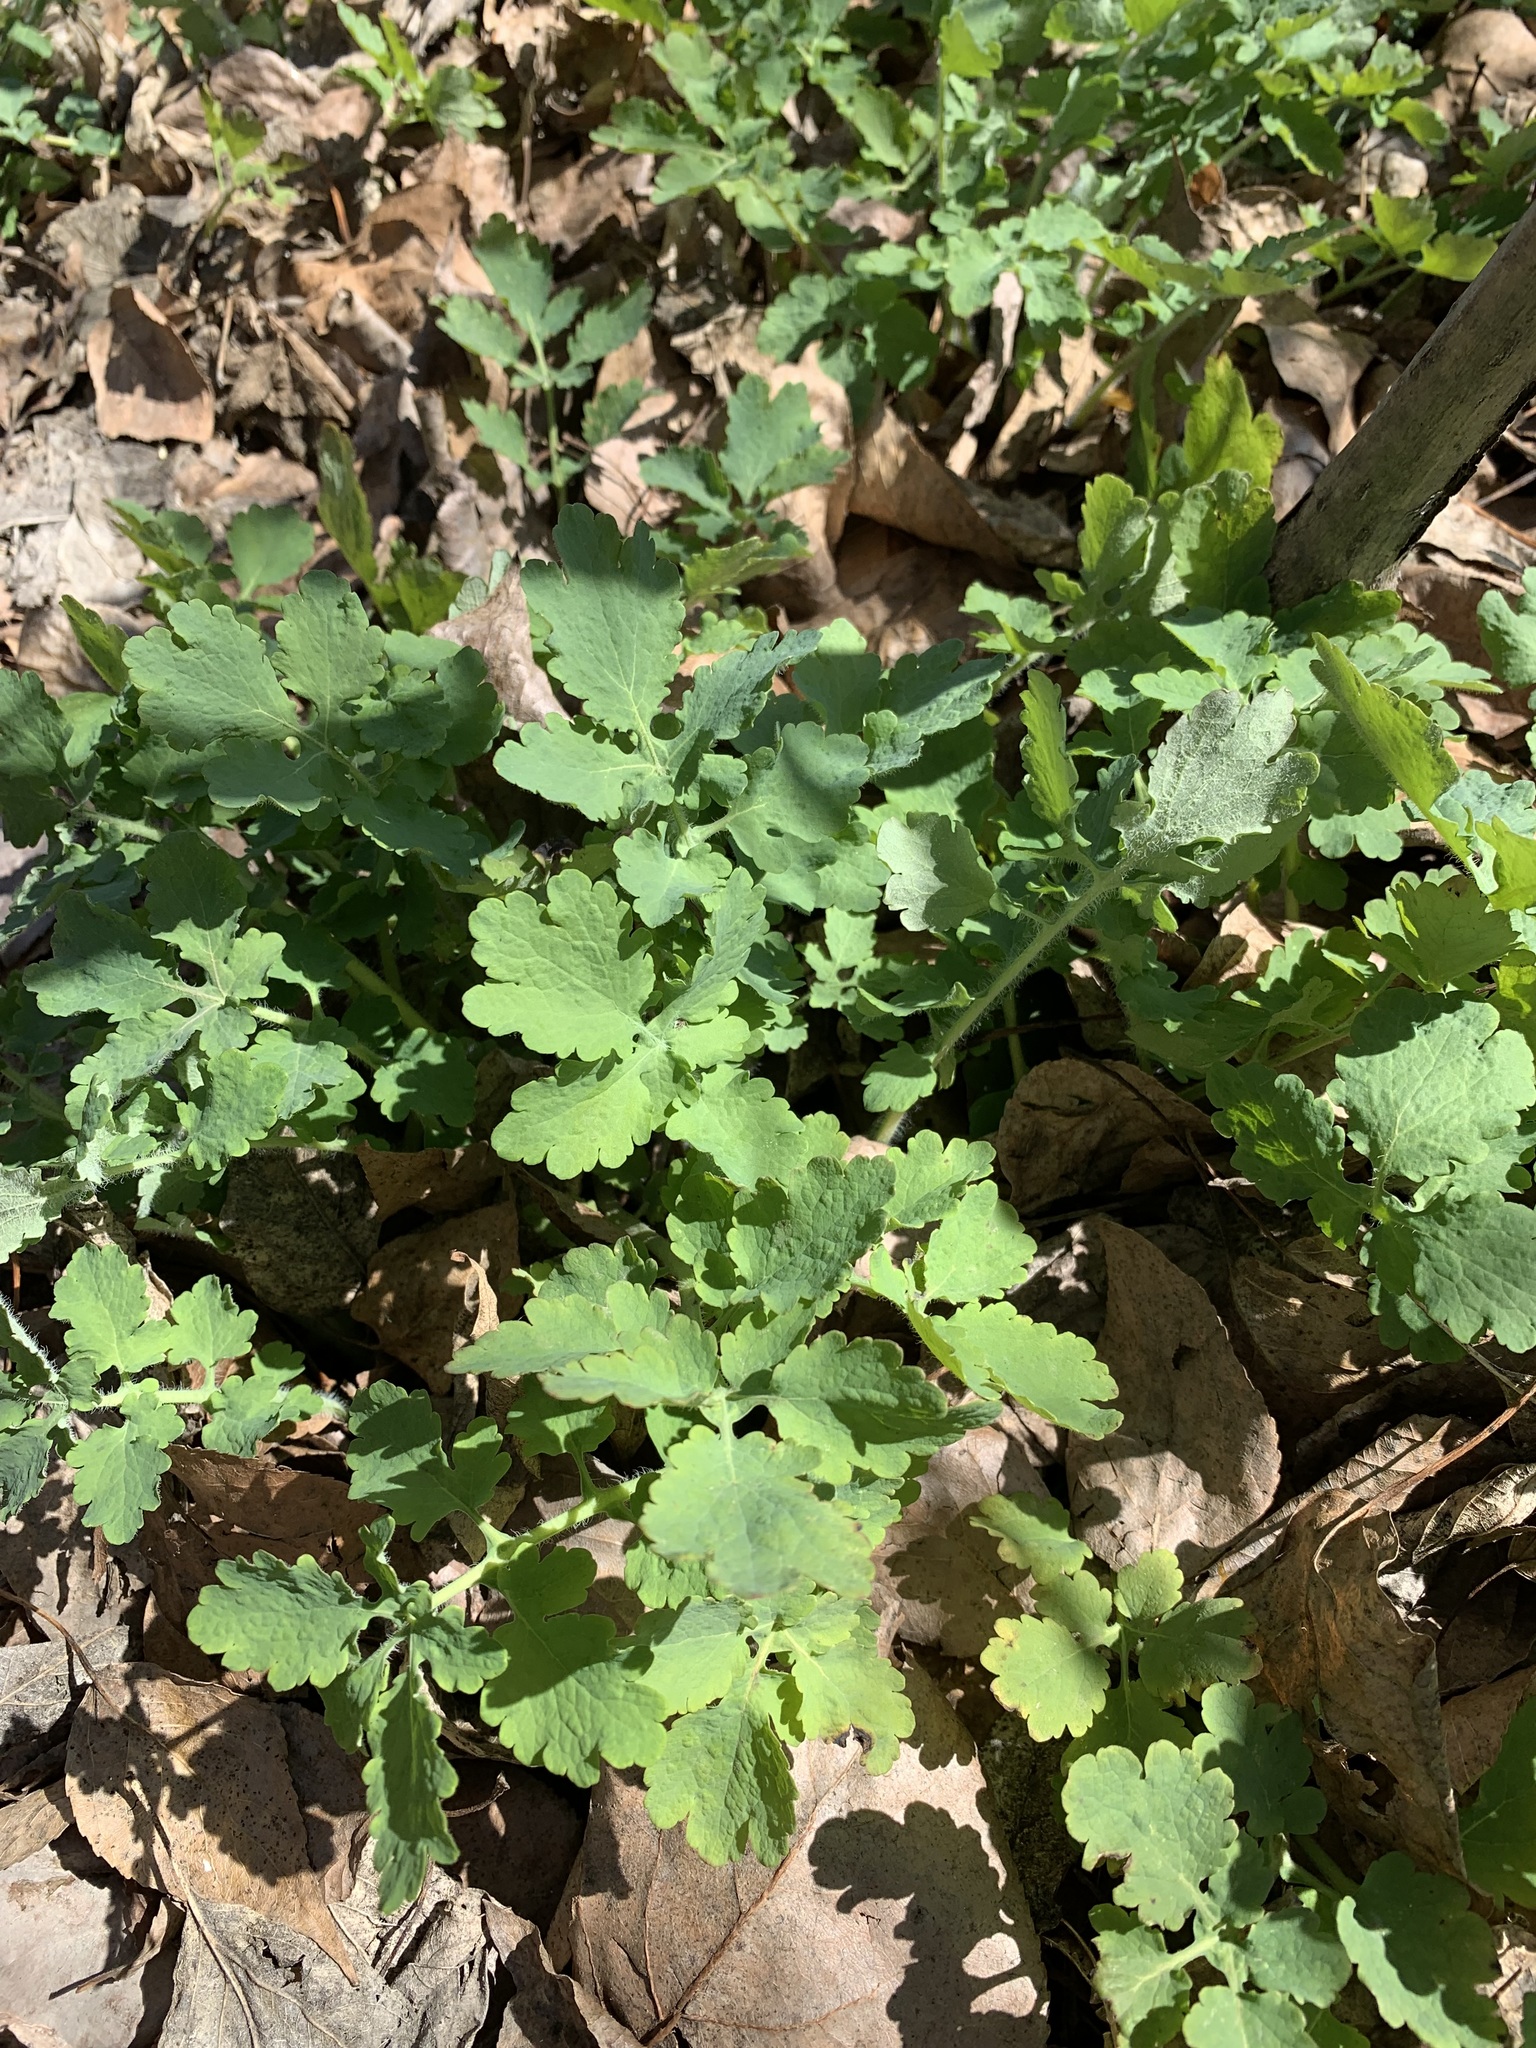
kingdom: Plantae
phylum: Tracheophyta
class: Magnoliopsida
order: Ranunculales
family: Papaveraceae
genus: Chelidonium
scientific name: Chelidonium majus
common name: Greater celandine
